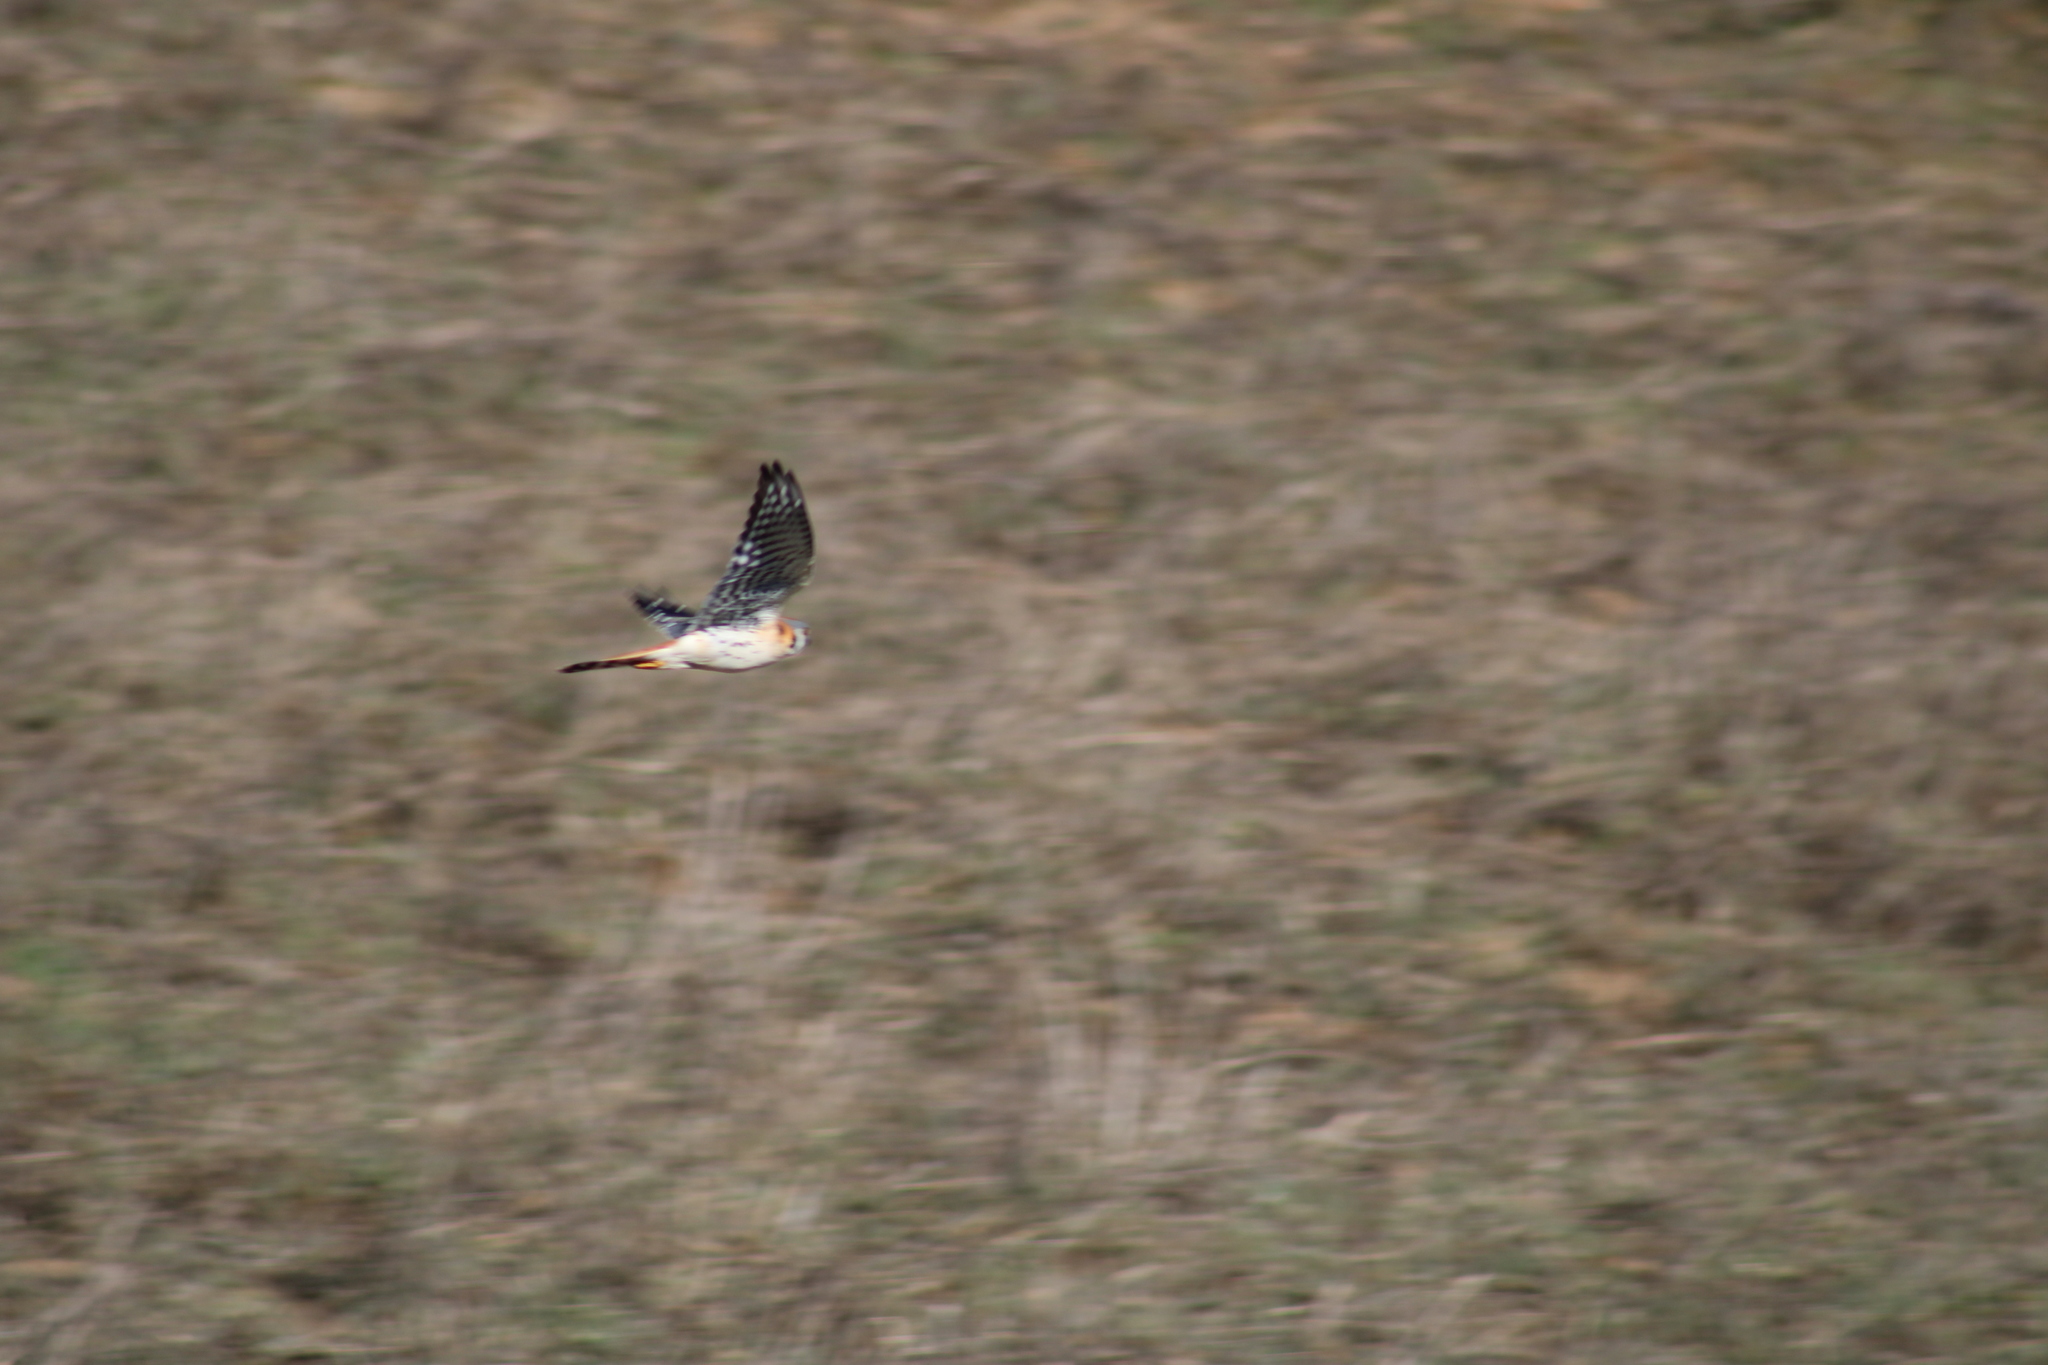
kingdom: Animalia
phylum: Chordata
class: Aves
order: Falconiformes
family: Falconidae
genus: Falco
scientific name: Falco sparverius
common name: American kestrel
